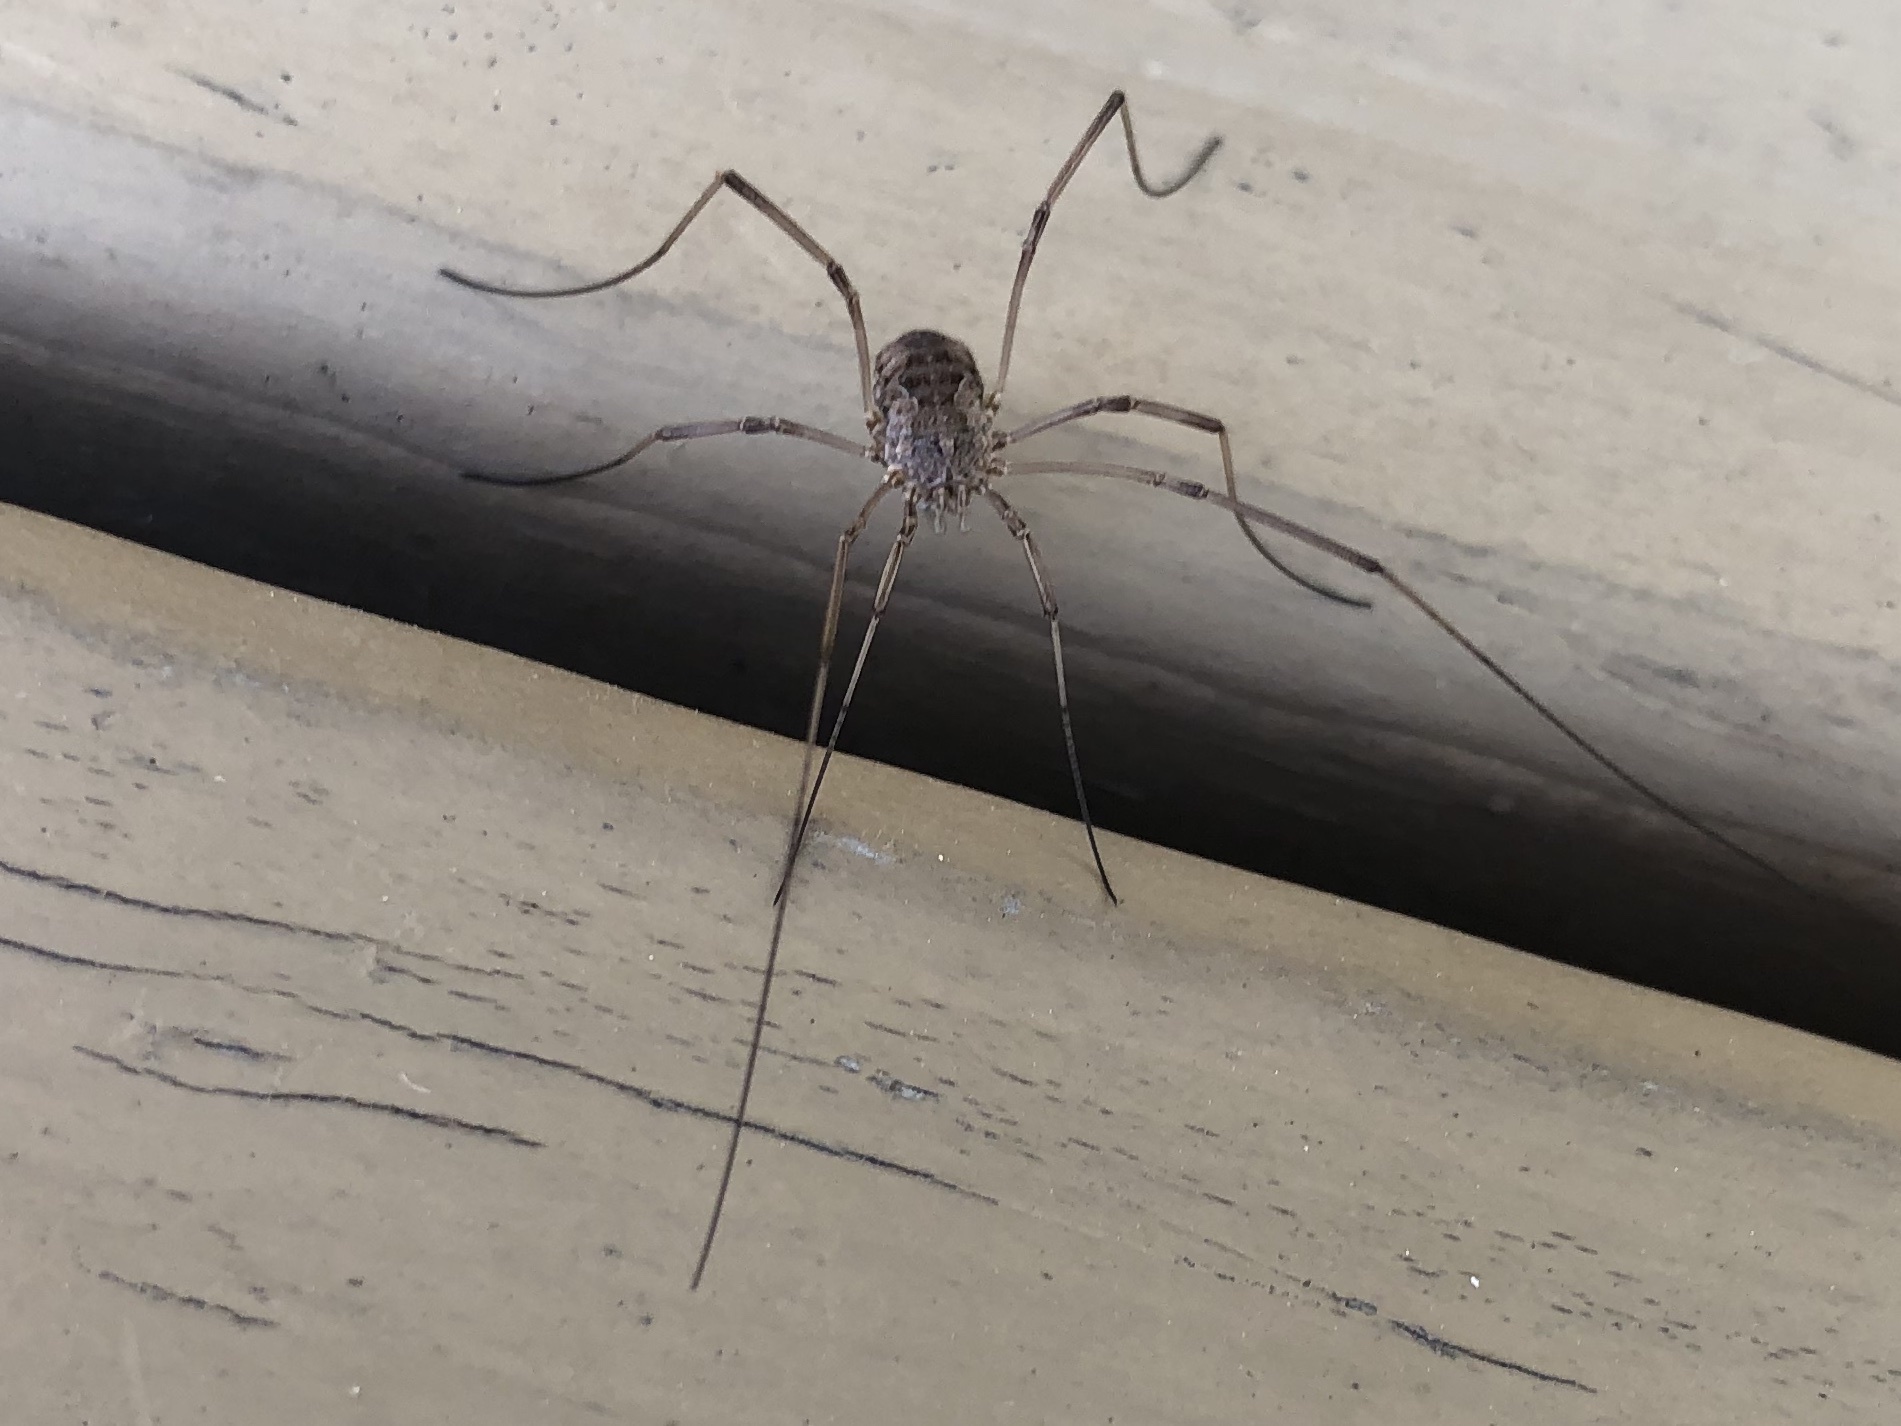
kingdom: Animalia
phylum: Arthropoda
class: Arachnida
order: Opiliones
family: Phalangiidae
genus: Phalangium
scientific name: Phalangium opilio
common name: Daddy longleg
